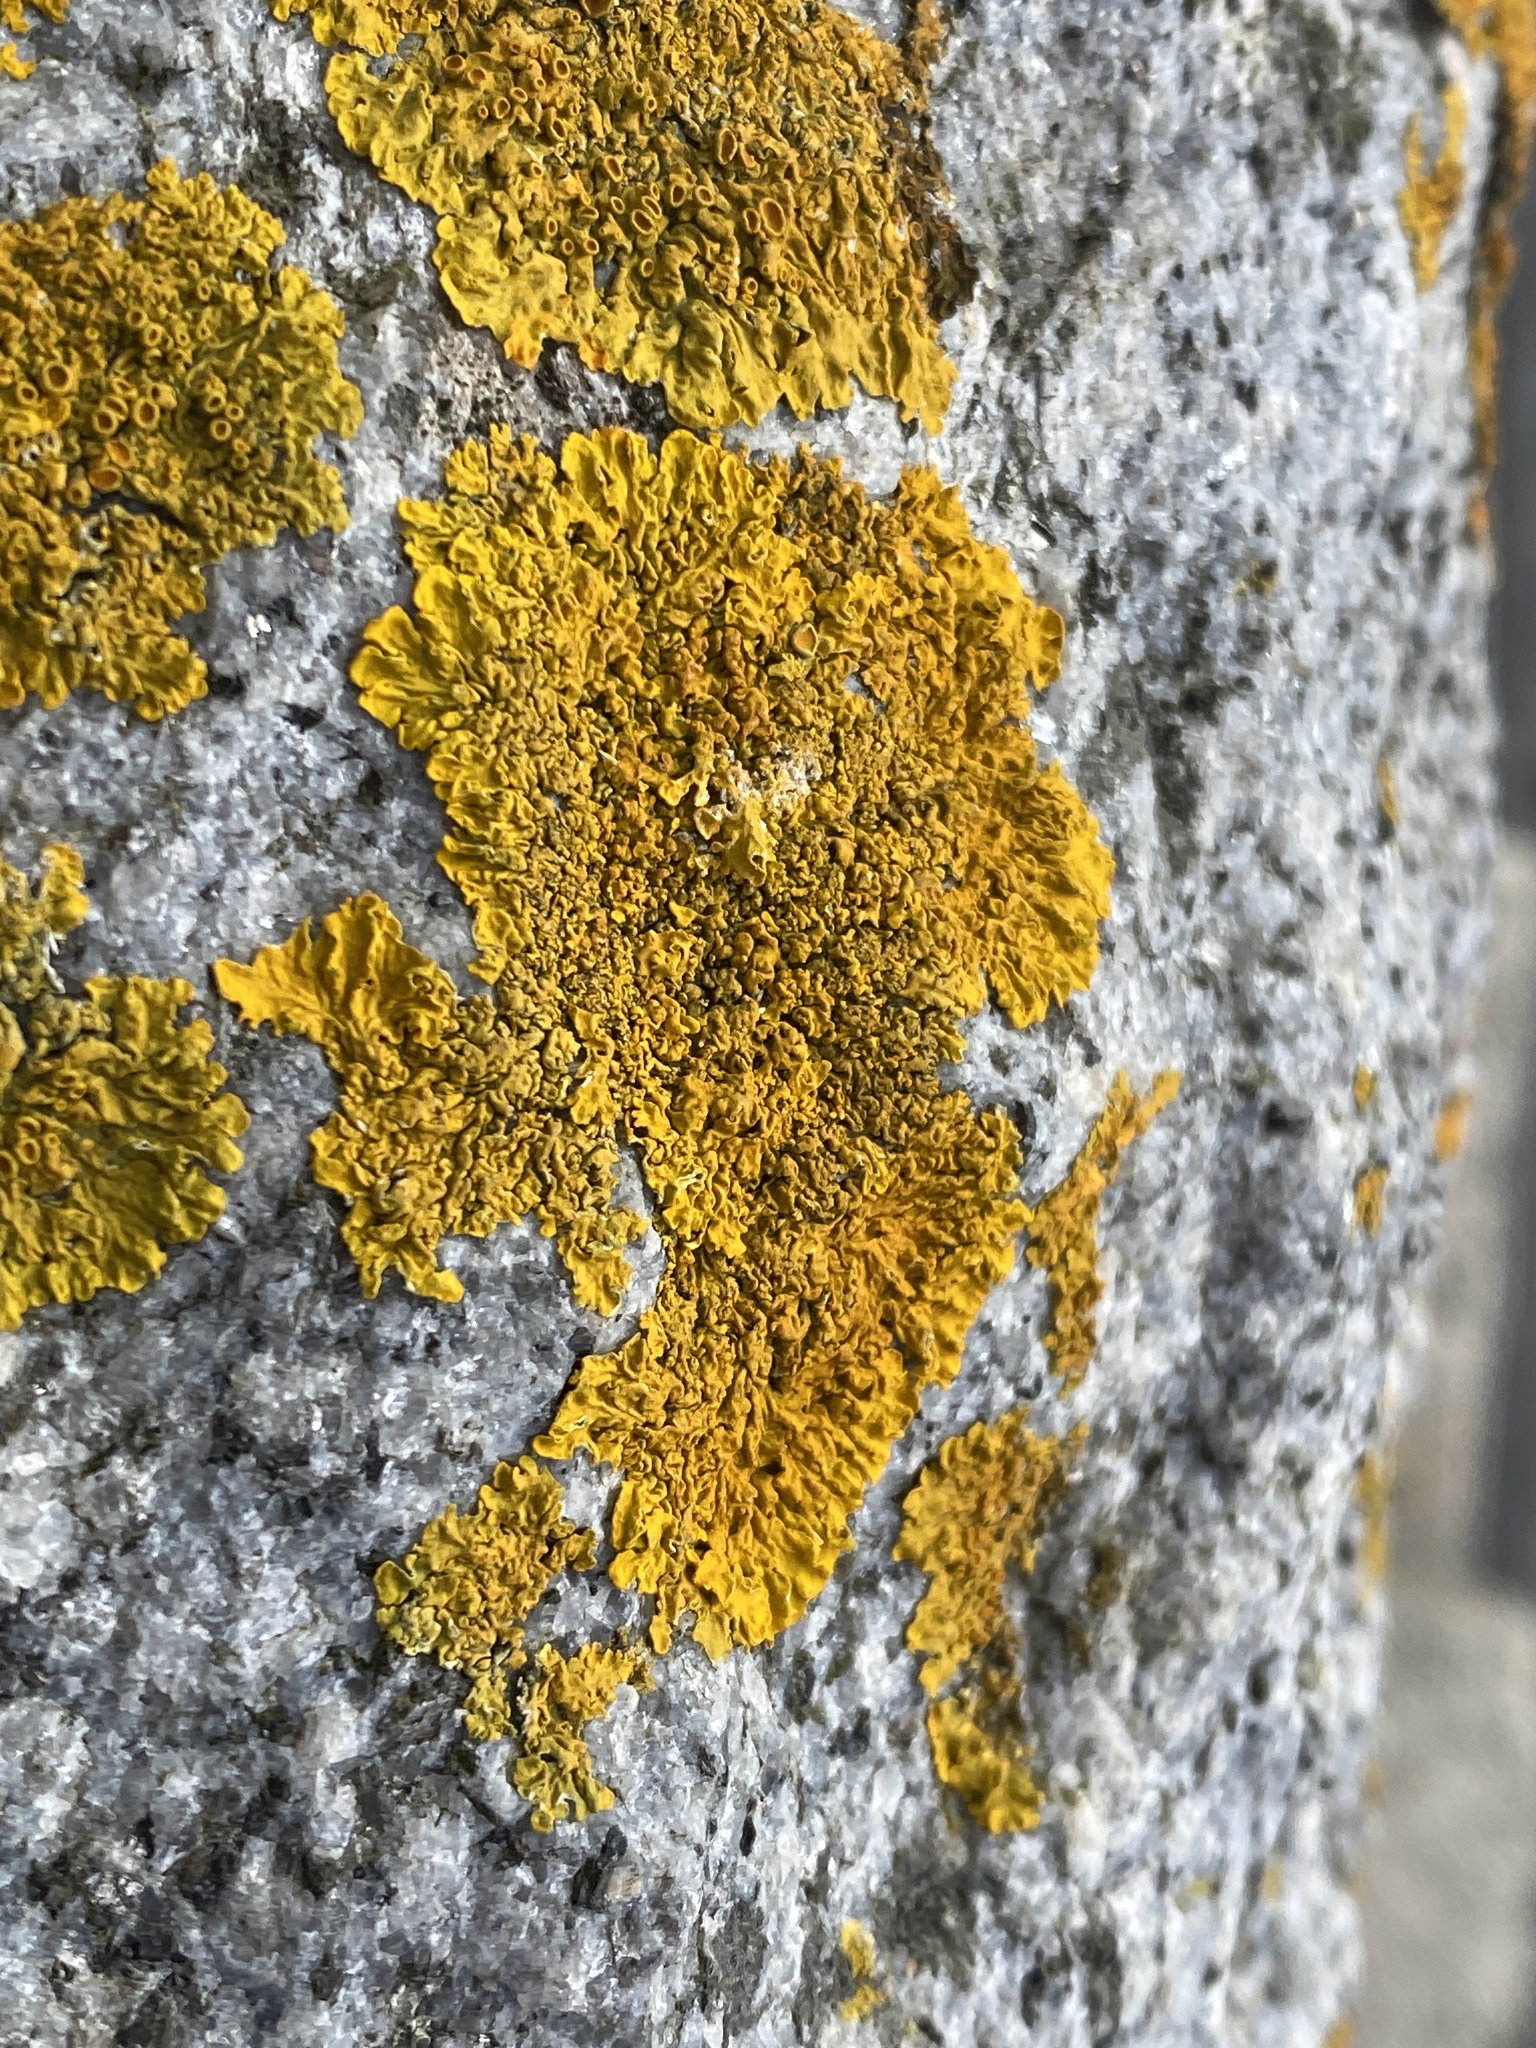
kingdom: Fungi
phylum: Ascomycota
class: Lecanoromycetes
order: Teloschistales
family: Teloschistaceae
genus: Xanthoria
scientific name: Xanthoria parietina
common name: Common orange lichen
